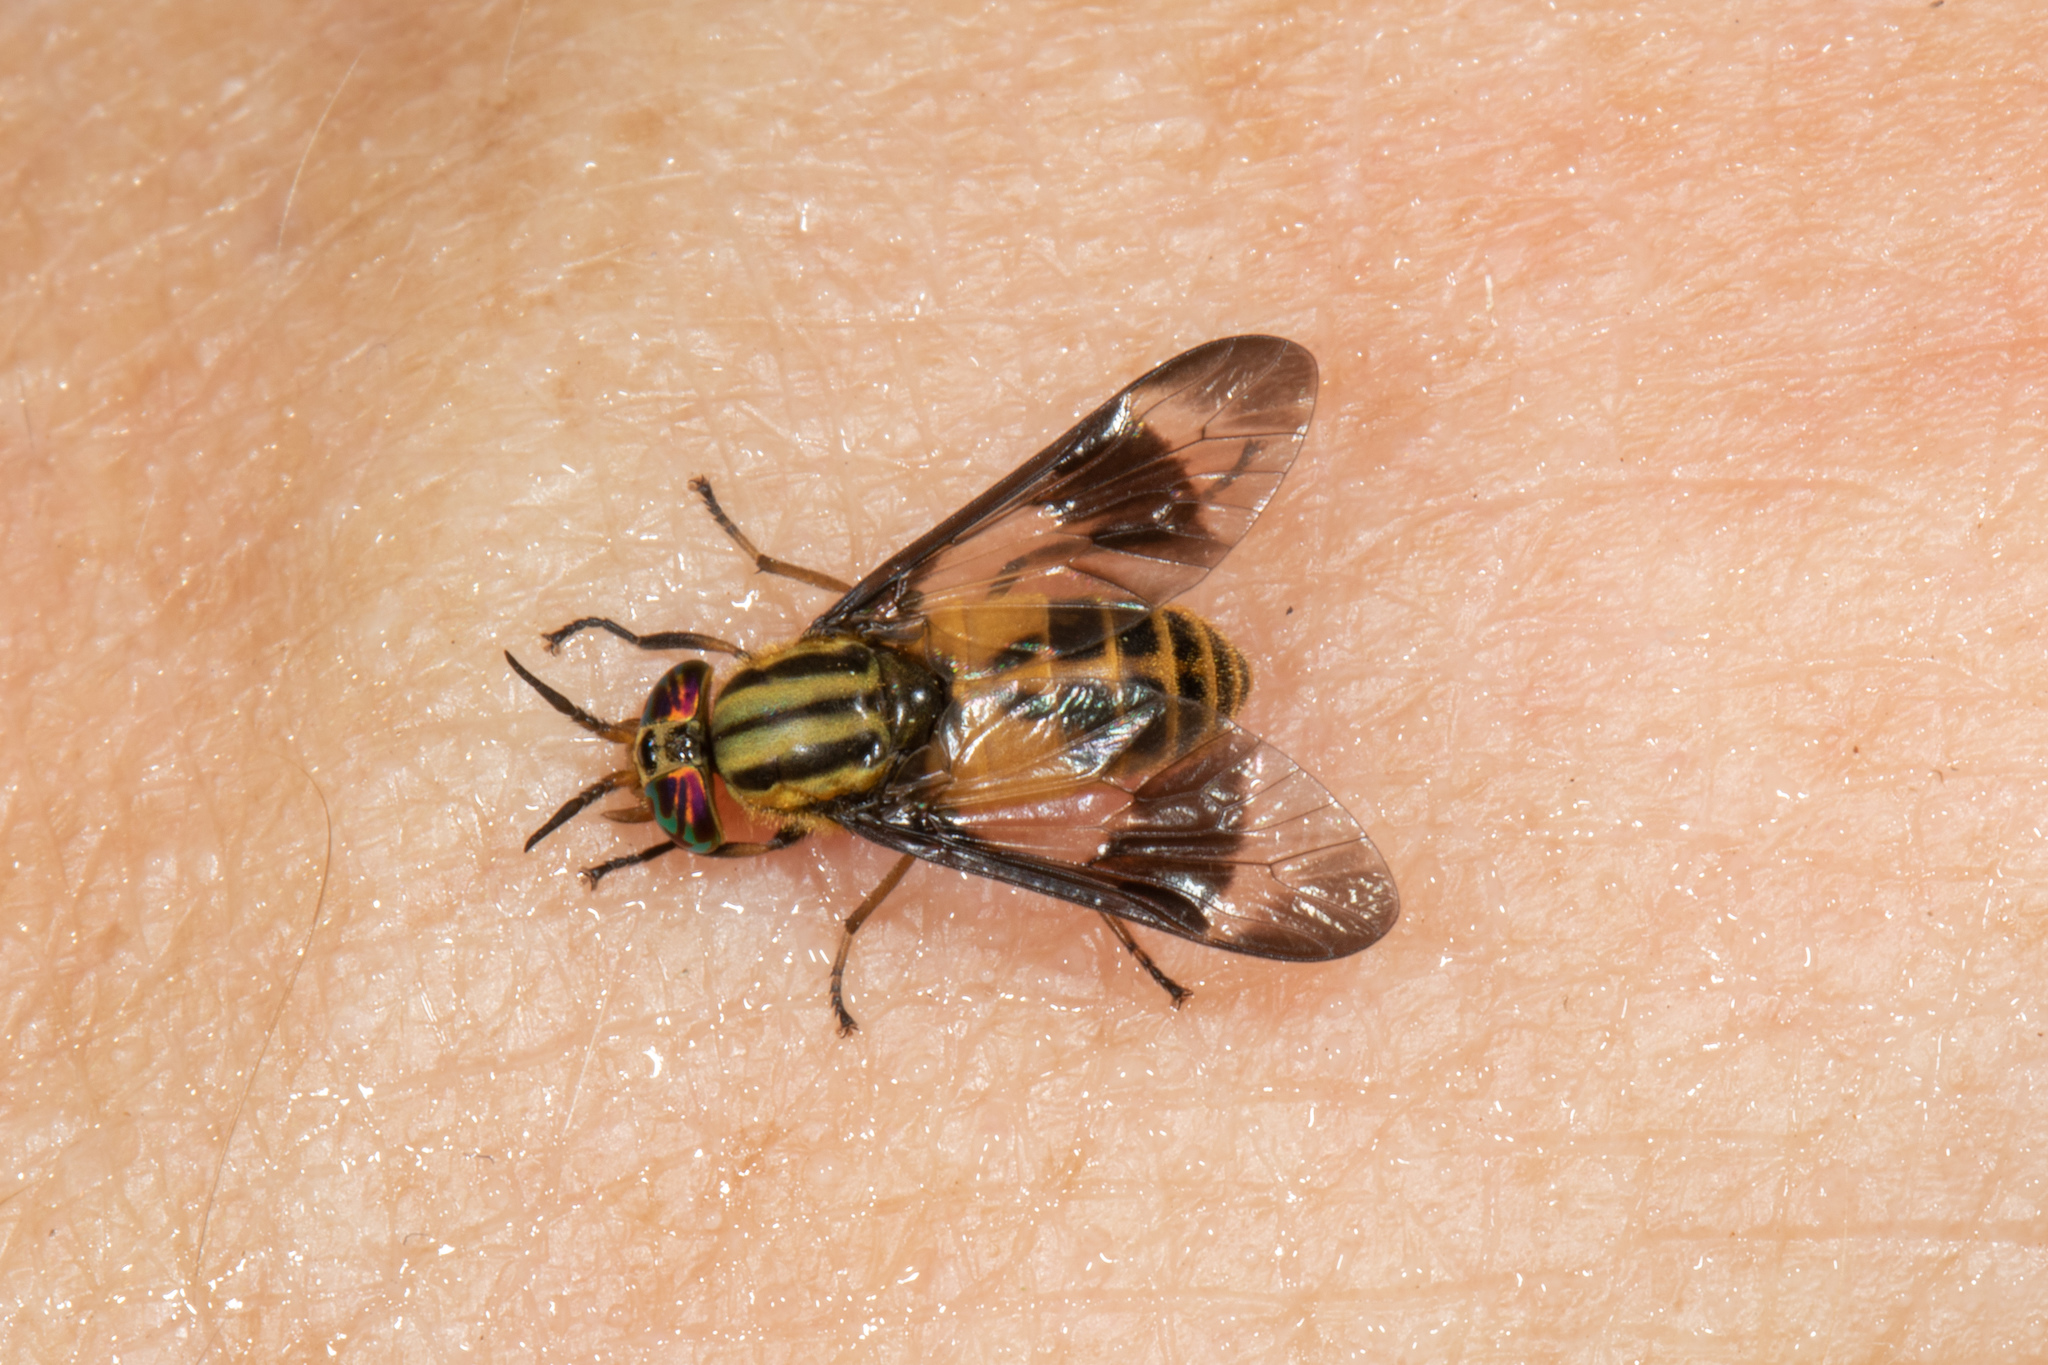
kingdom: Animalia
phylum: Arthropoda
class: Insecta
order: Diptera
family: Tabanidae
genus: Chrysops
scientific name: Chrysops geminatus
